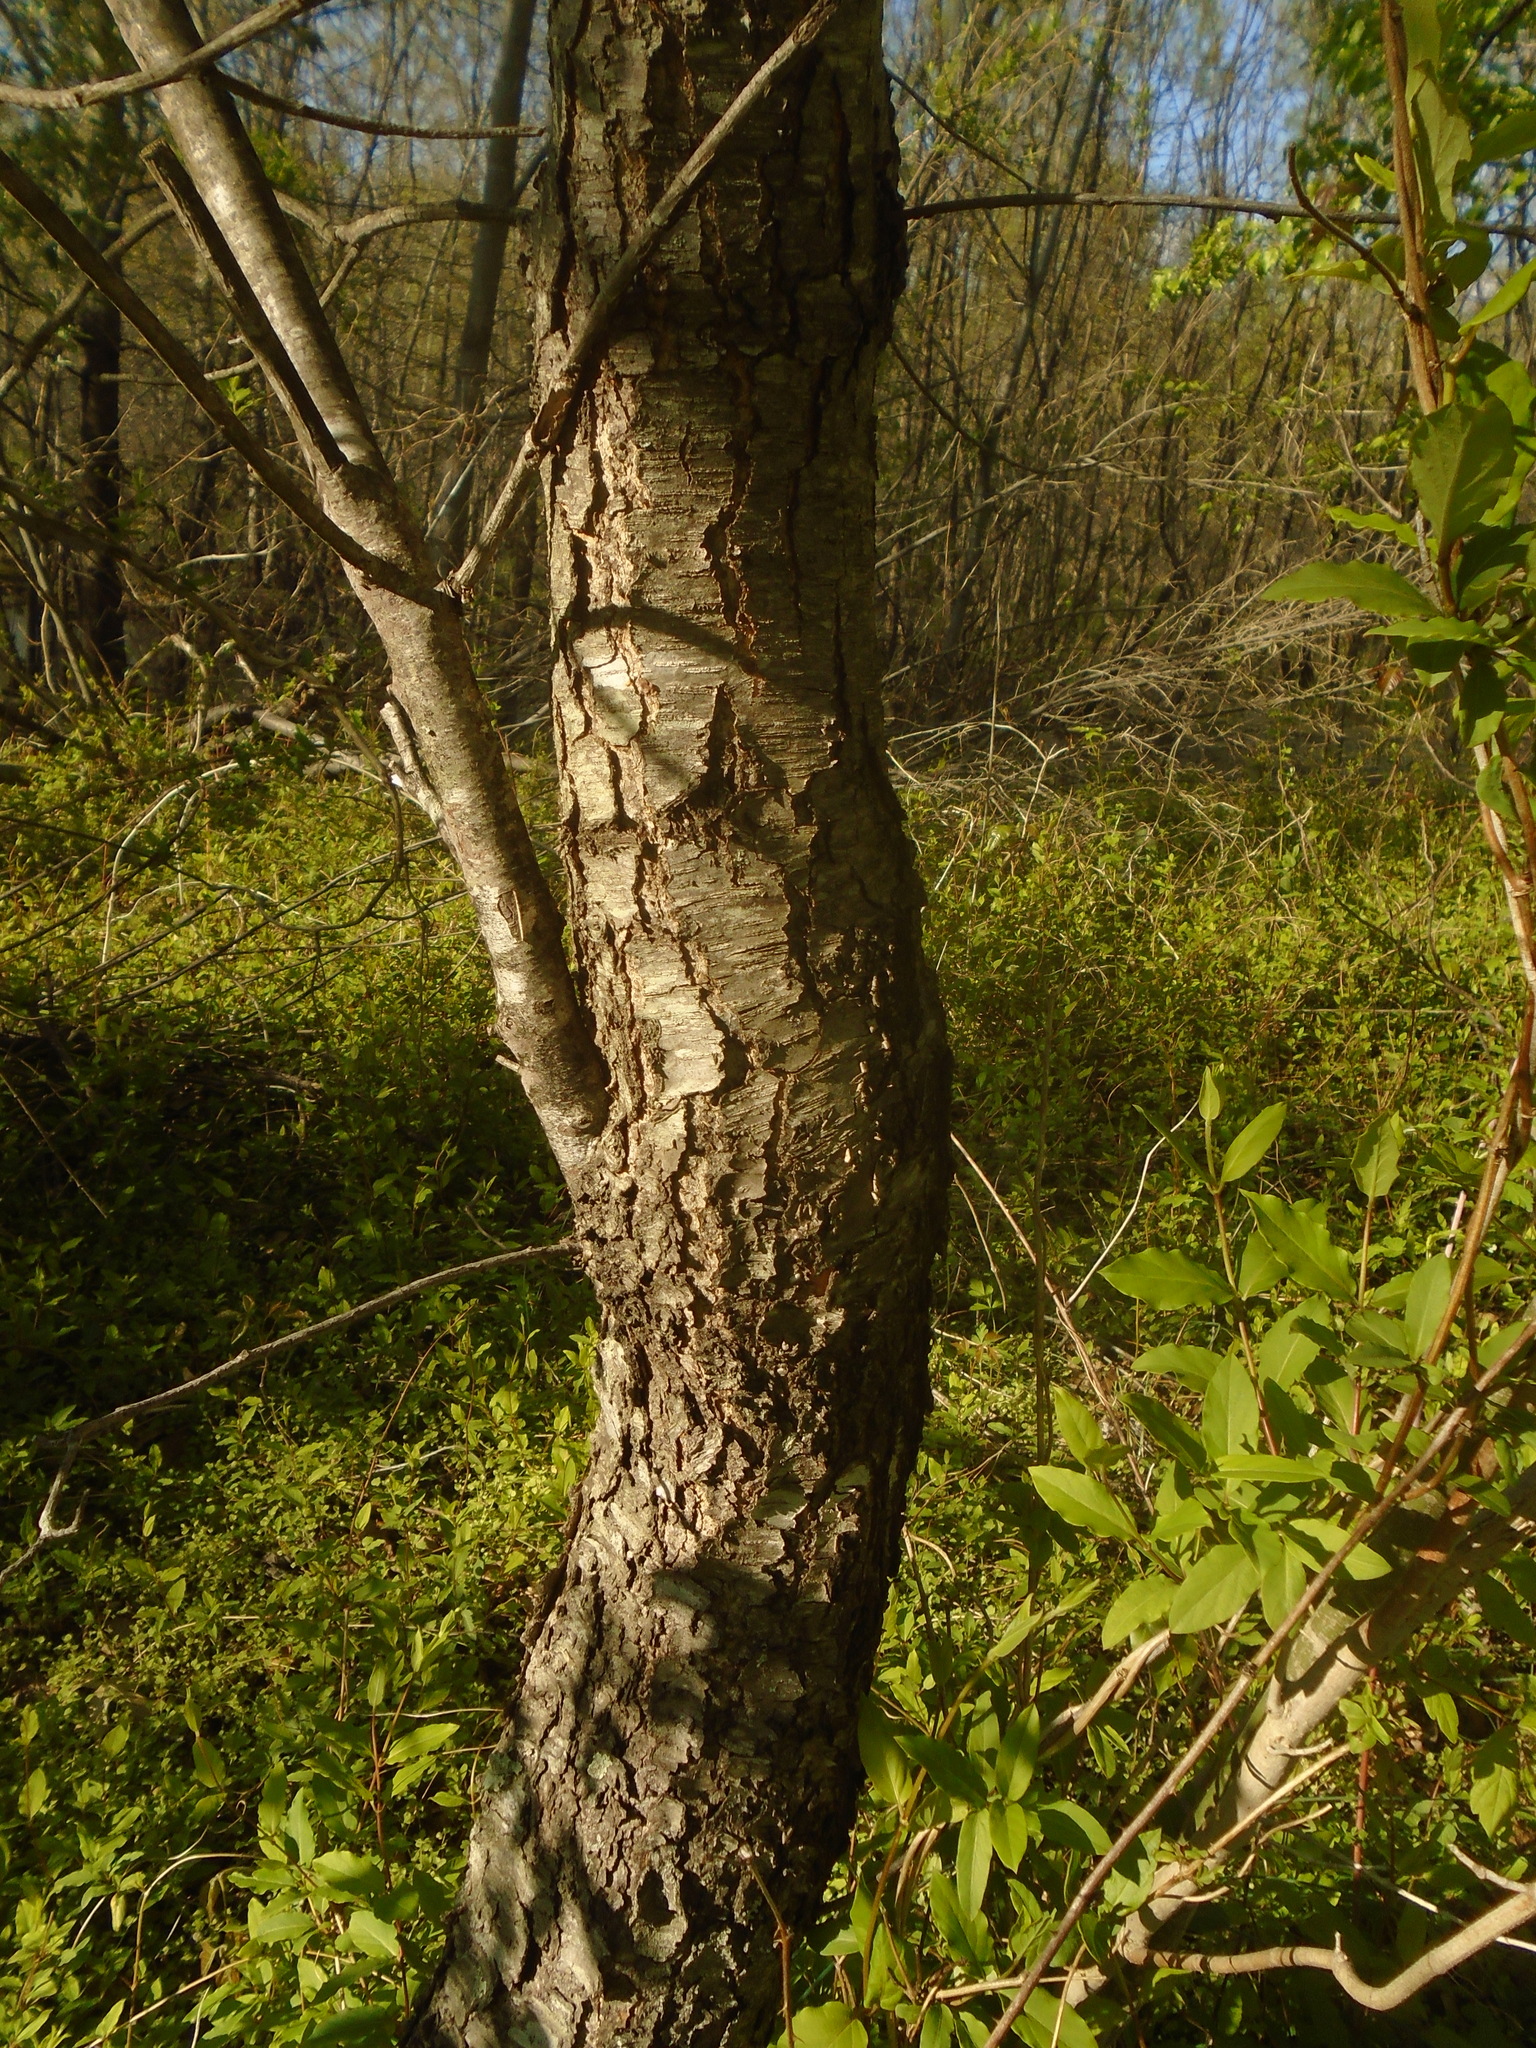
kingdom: Plantae
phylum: Tracheophyta
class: Magnoliopsida
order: Rosales
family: Rosaceae
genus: Prunus
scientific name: Prunus serotina
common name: Black cherry
